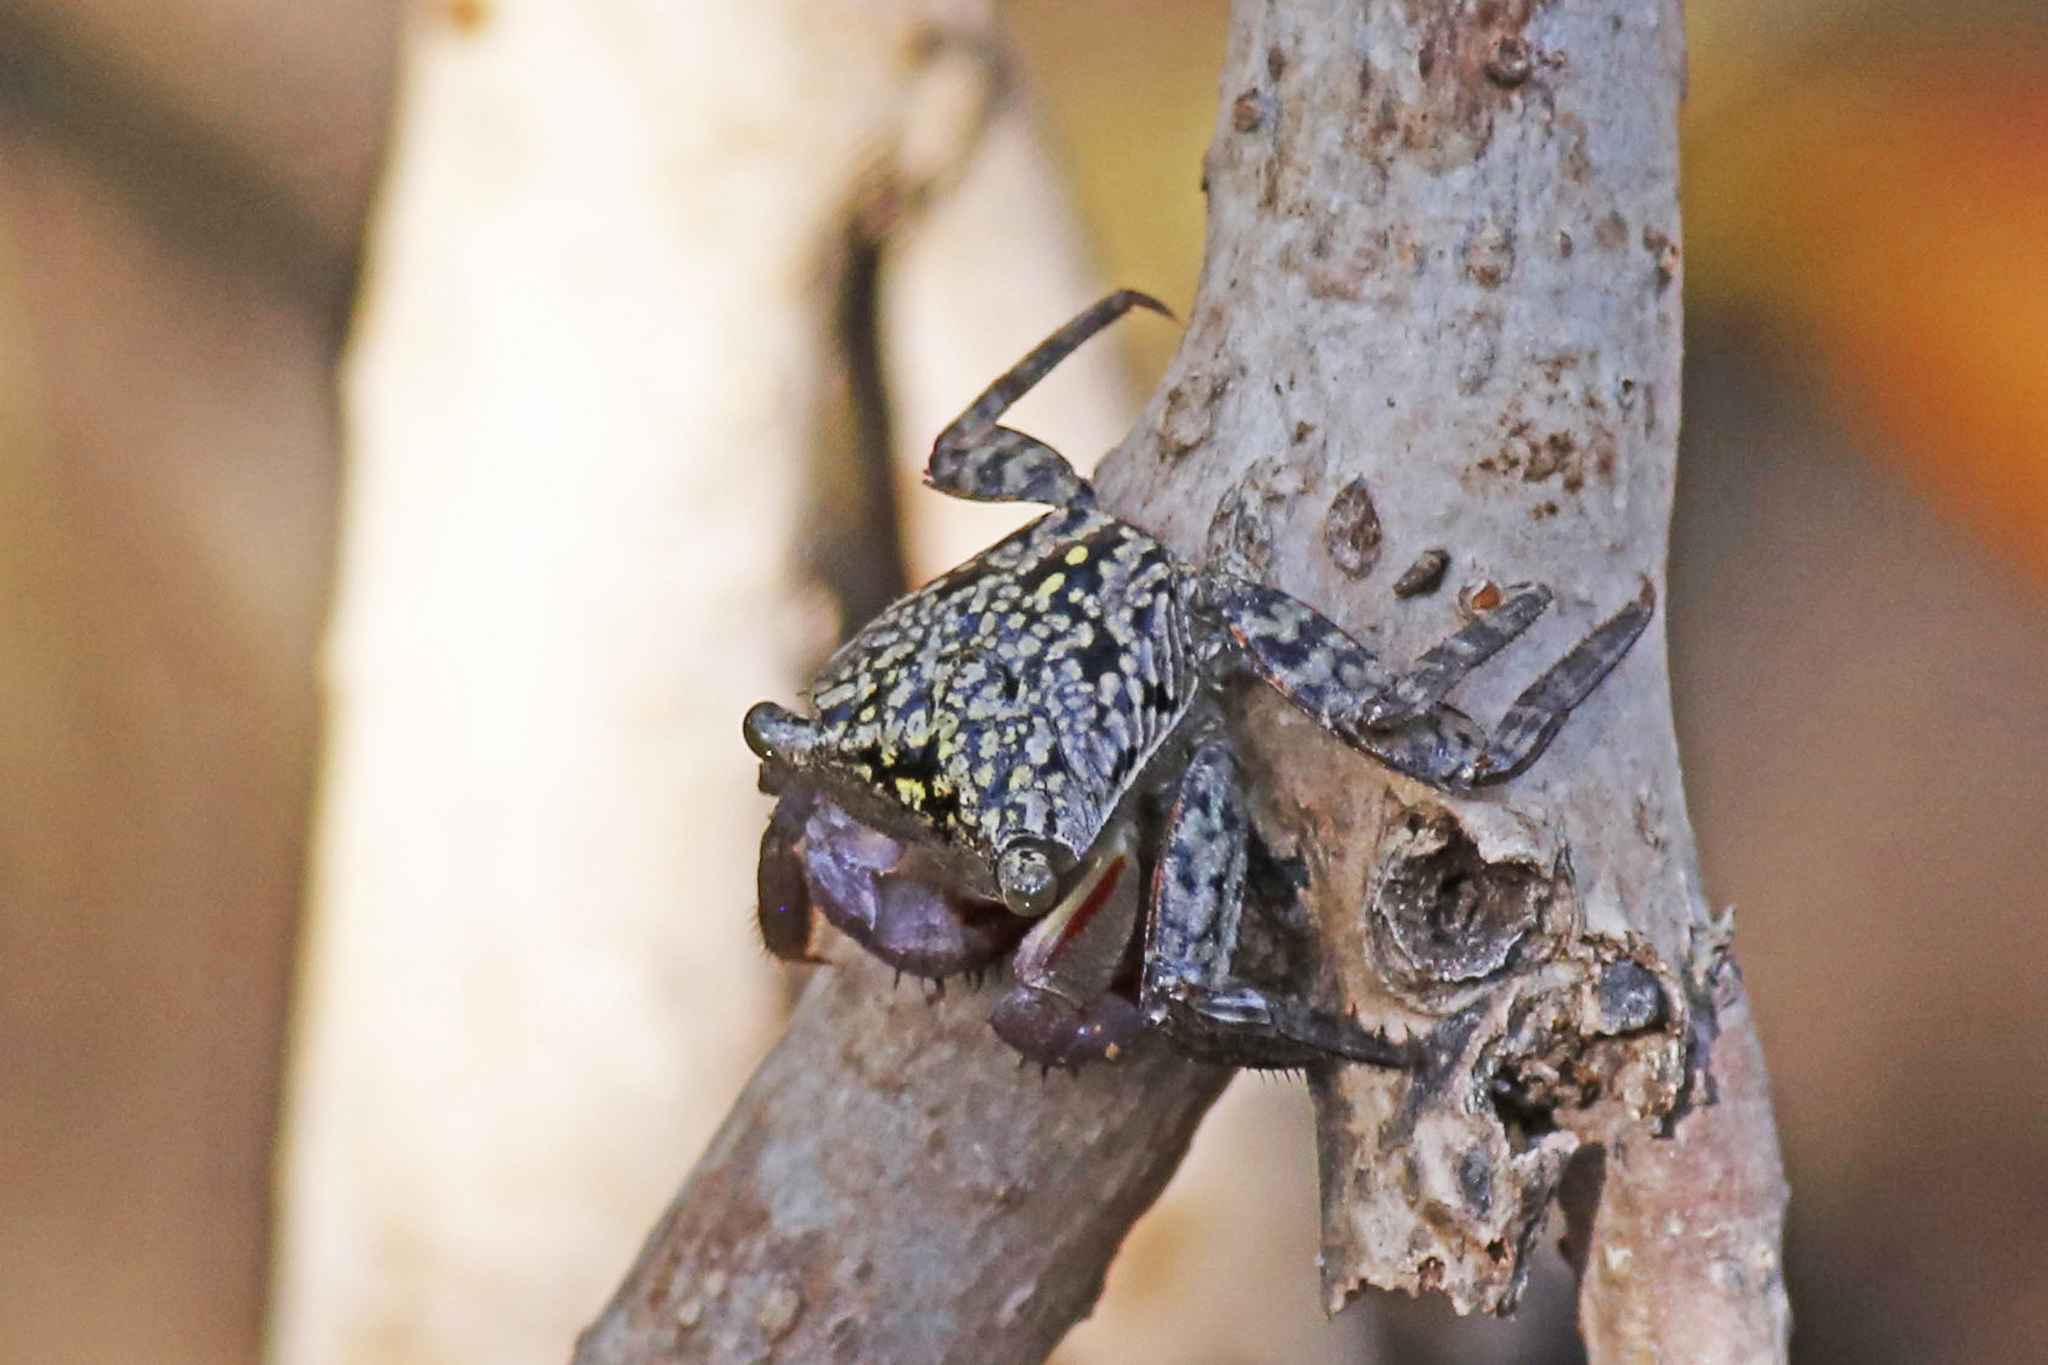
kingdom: Animalia
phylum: Arthropoda
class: Malacostraca
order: Decapoda
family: Sesarmidae
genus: Aratus
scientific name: Aratus pisonii
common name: Mangrove crab
